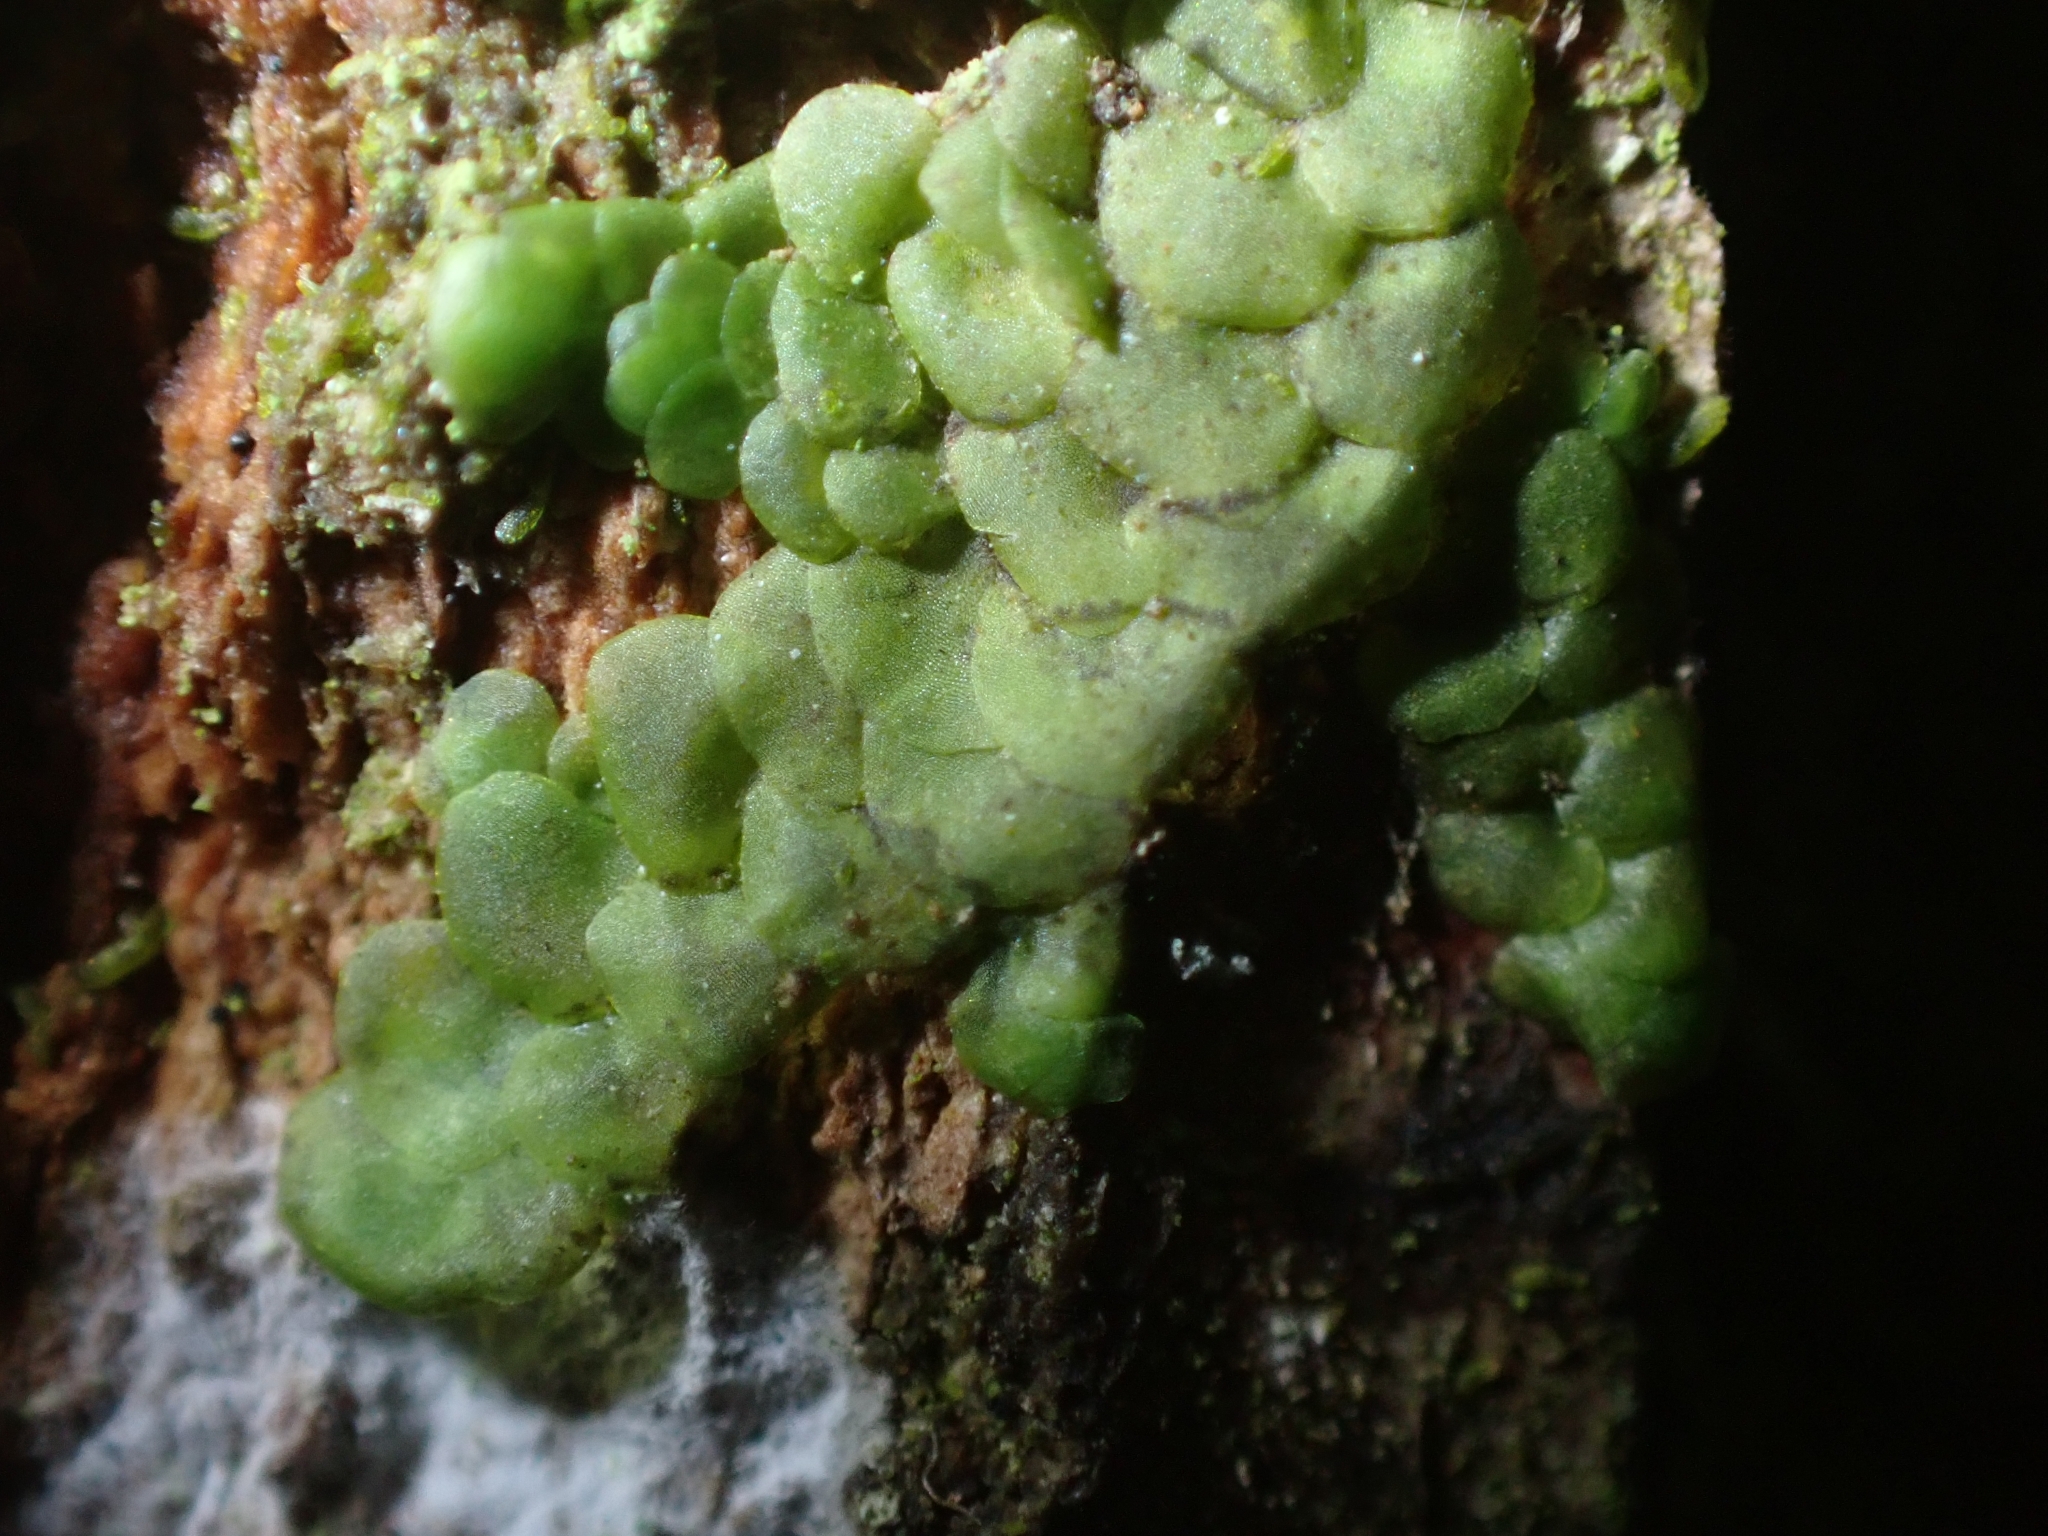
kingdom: Plantae
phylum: Marchantiophyta
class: Jungermanniopsida
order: Porellales
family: Radulaceae
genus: Radula
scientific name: Radula complanata
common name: Flat-leaved scalewort
